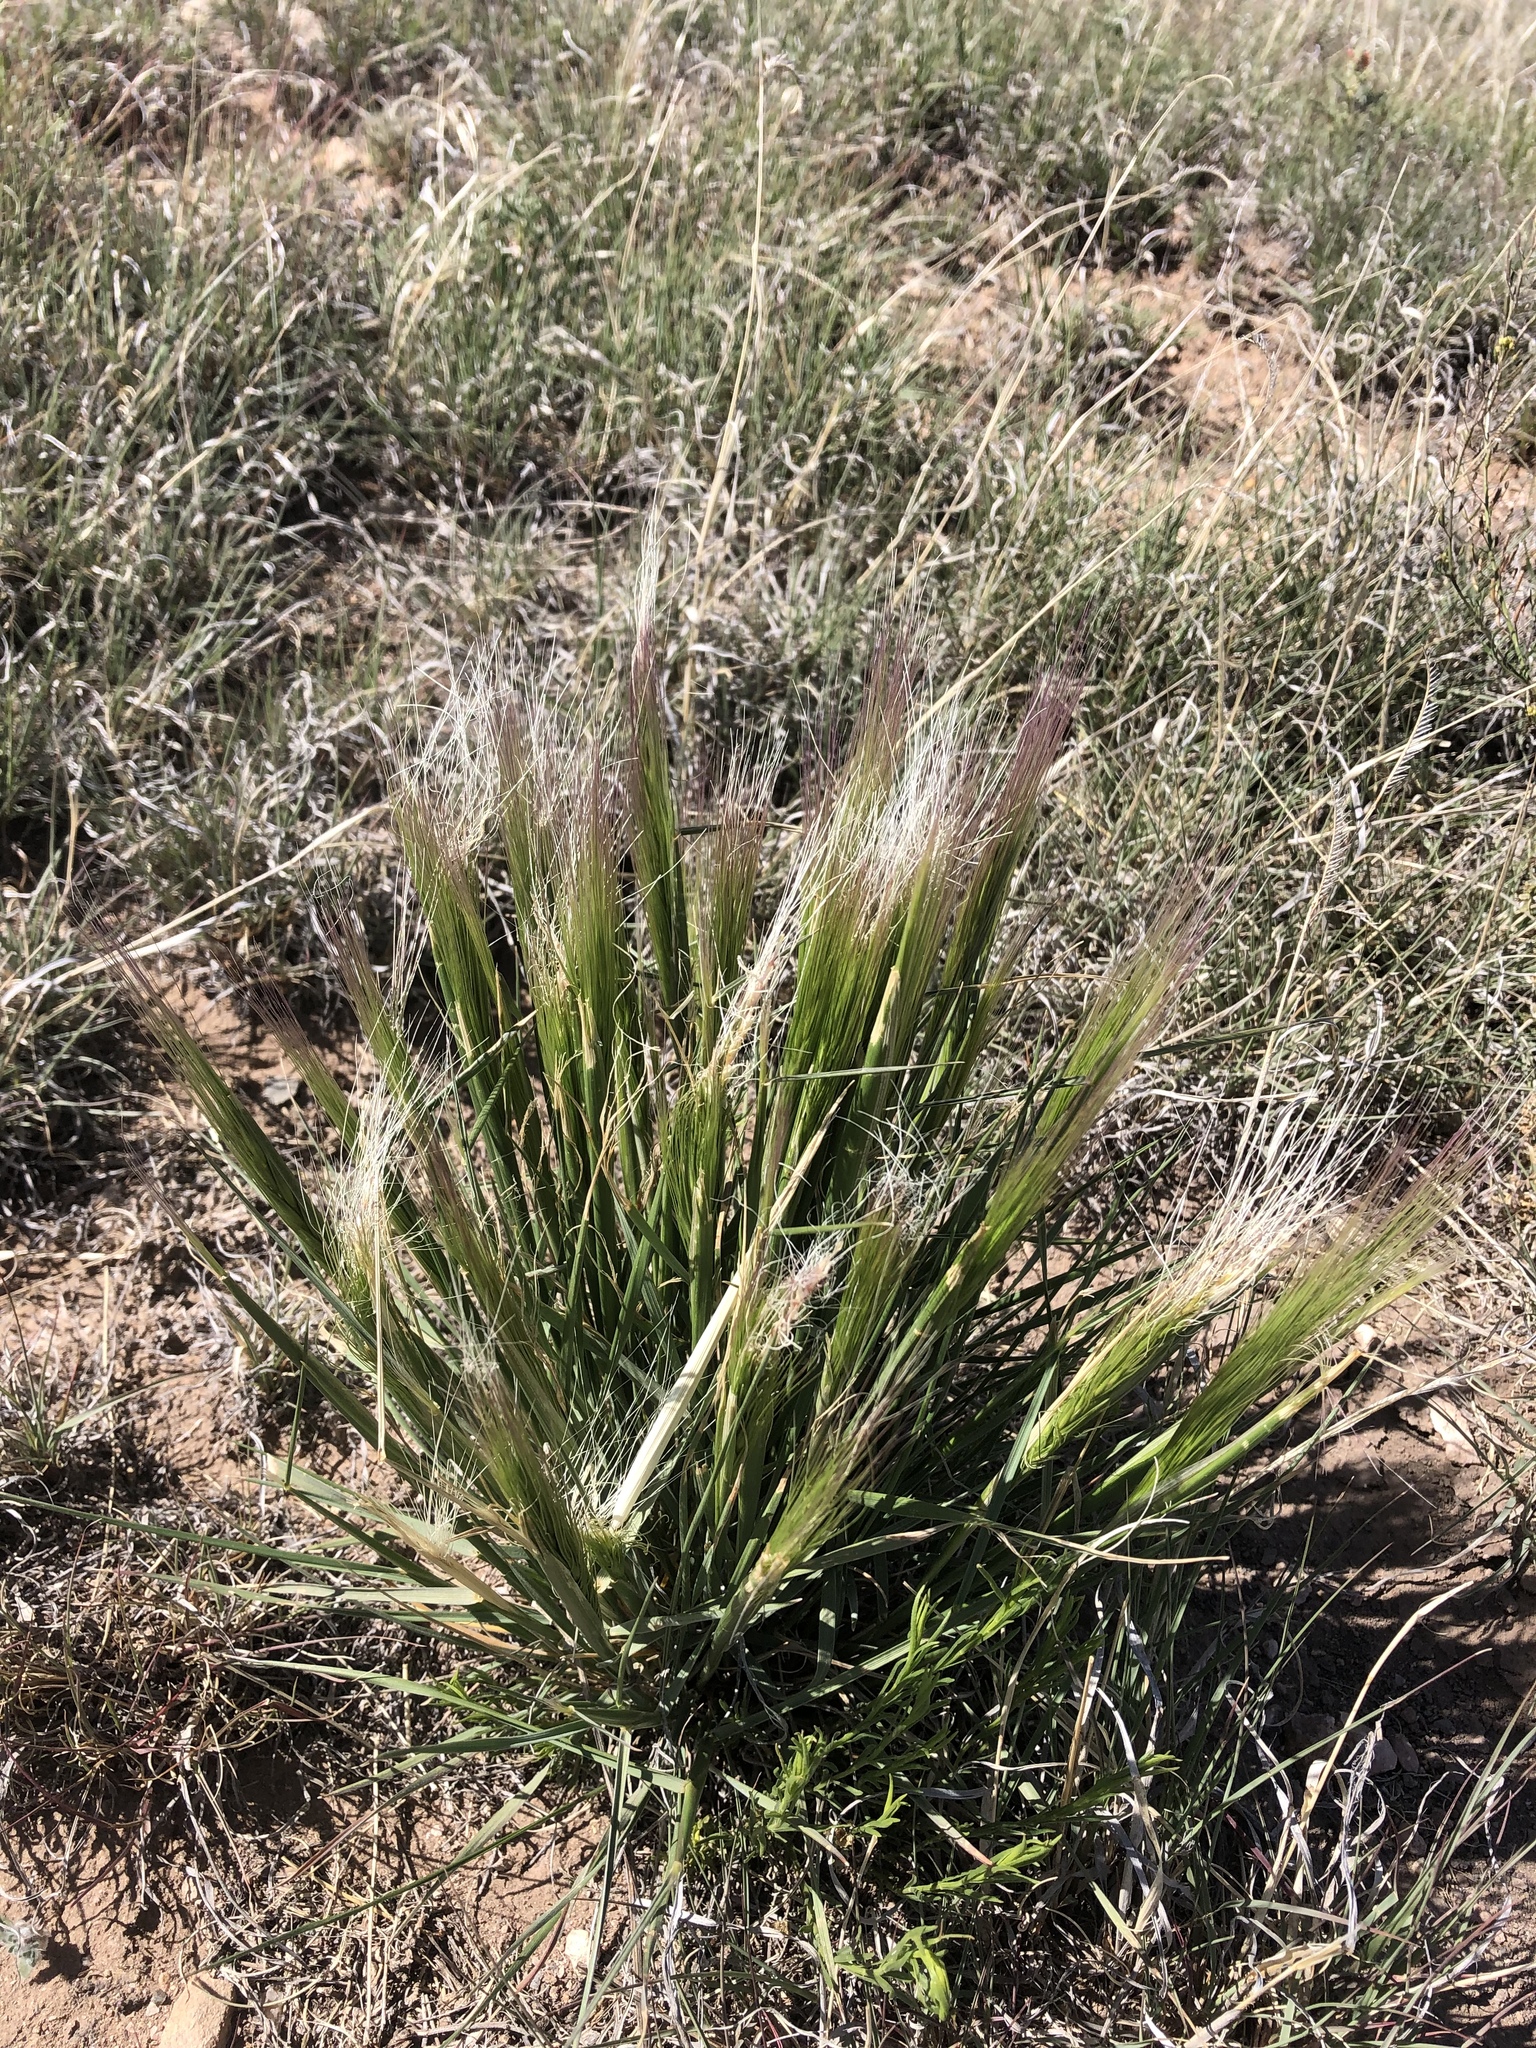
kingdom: Plantae
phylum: Tracheophyta
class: Liliopsida
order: Poales
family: Poaceae
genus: Elymus
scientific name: Elymus elymoides
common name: Bottlebrush squirreltail
